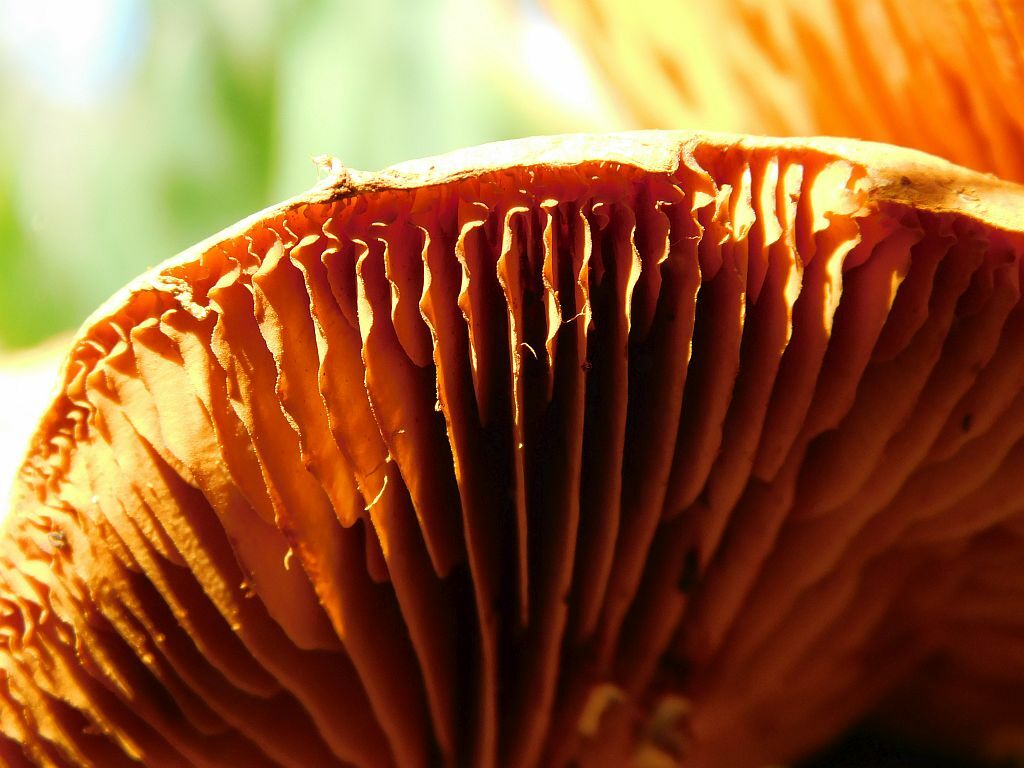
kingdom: Fungi
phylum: Basidiomycota
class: Agaricomycetes
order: Agaricales
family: Hymenogastraceae
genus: Gymnopilus
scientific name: Gymnopilus junonius
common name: Spectacular rustgill
